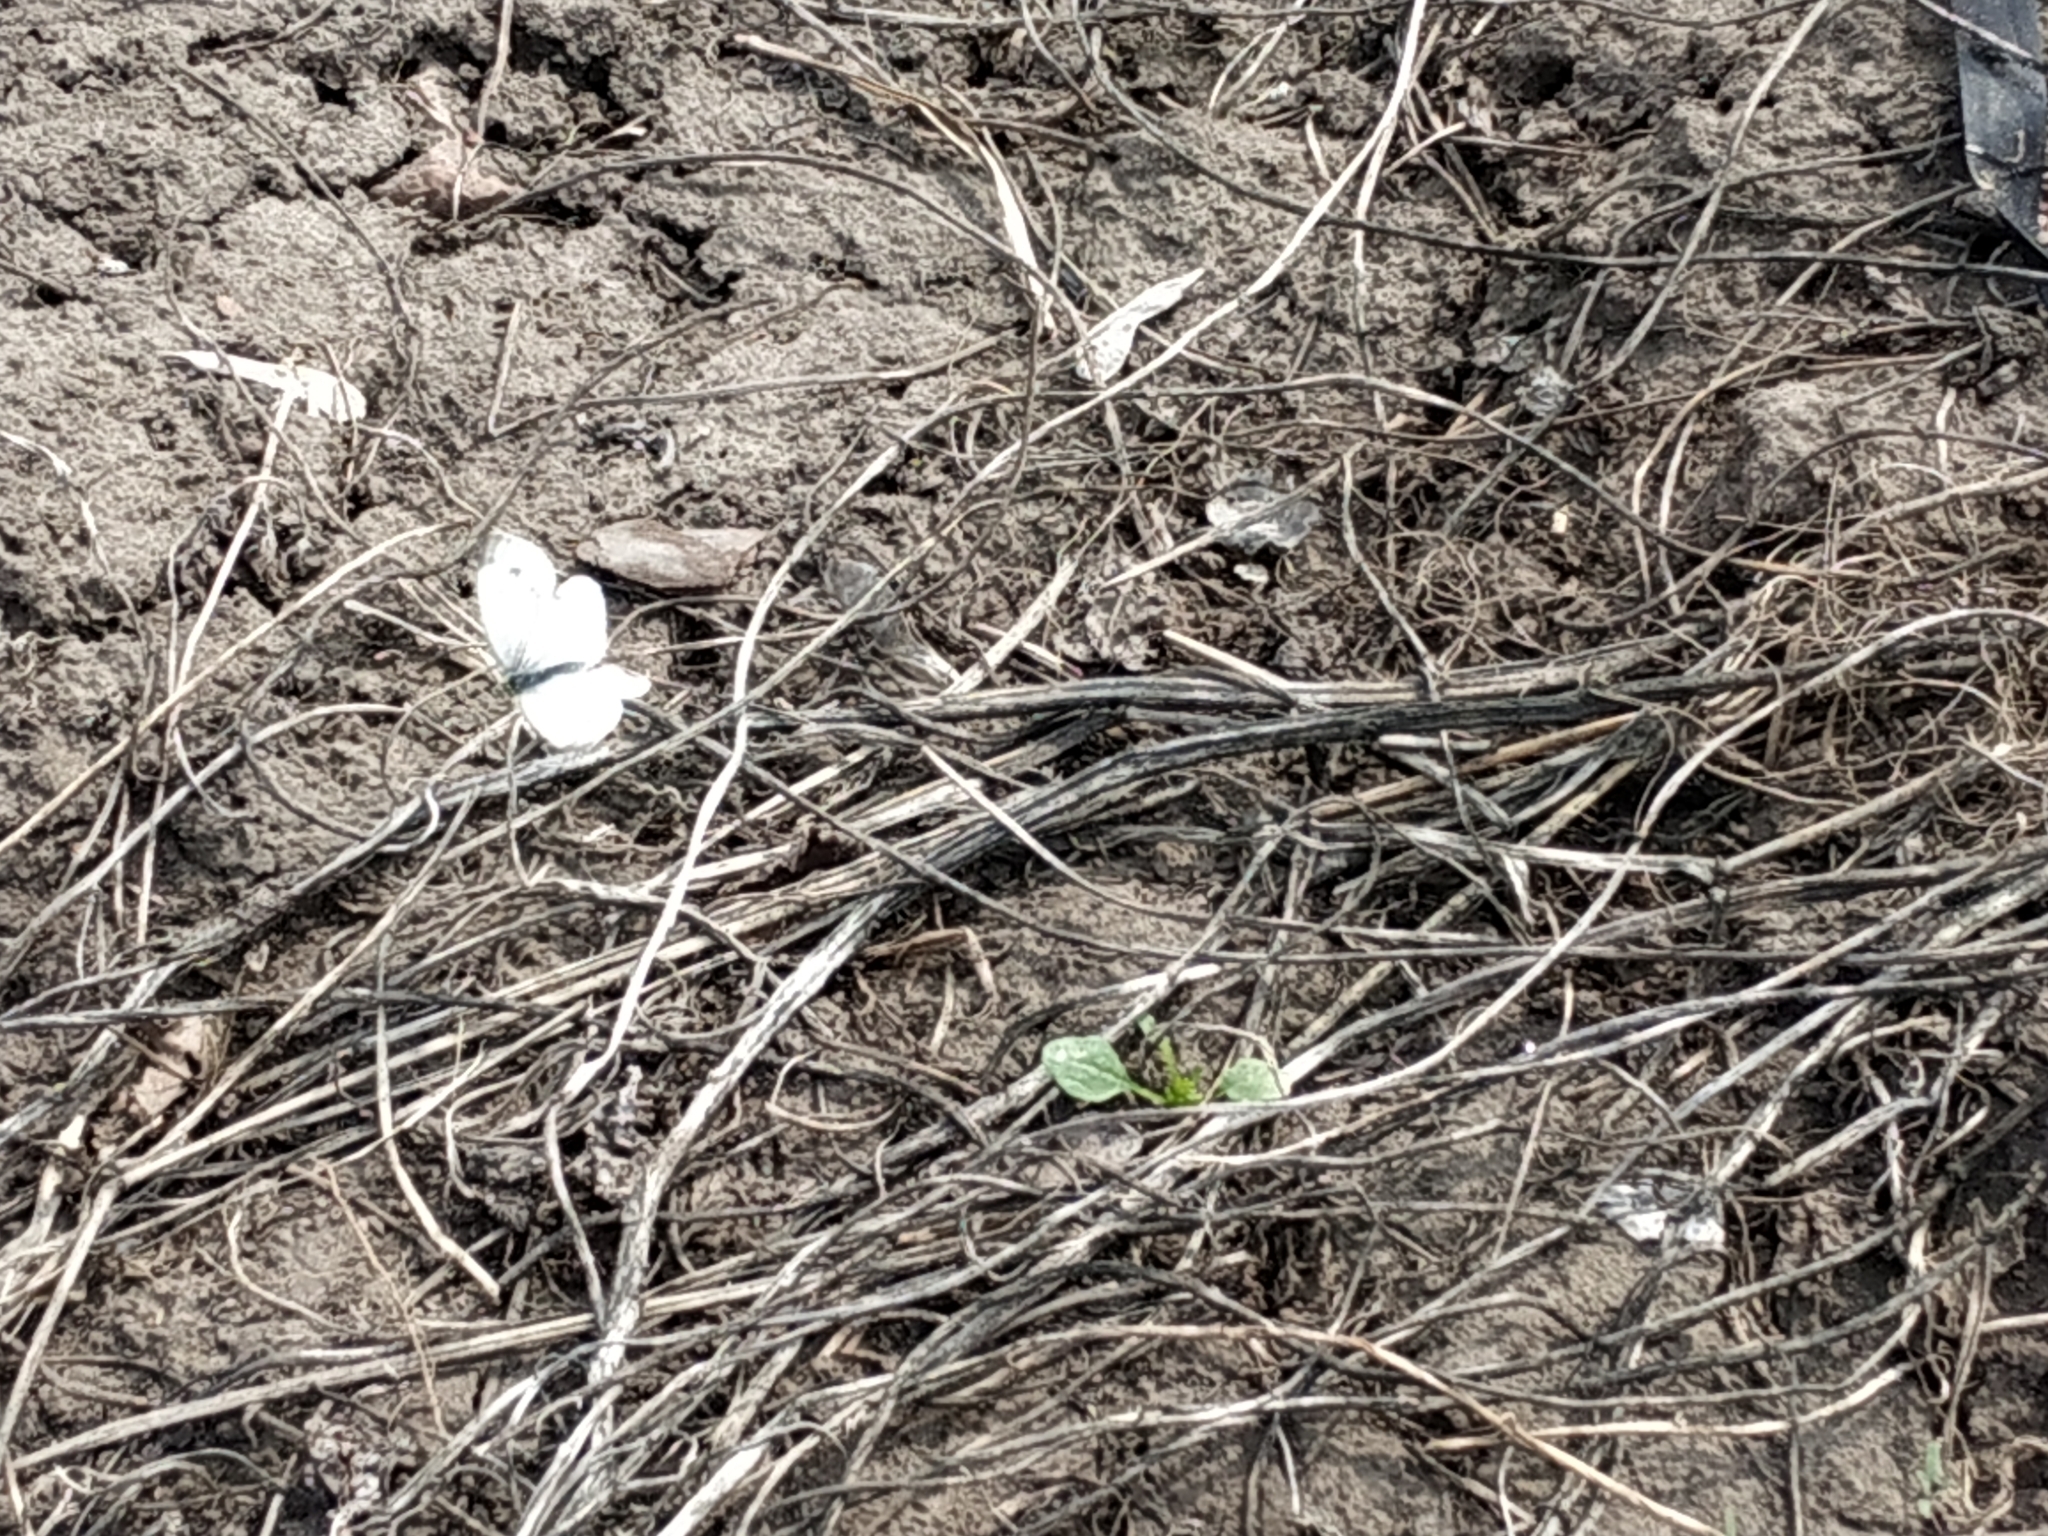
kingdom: Animalia
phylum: Arthropoda
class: Insecta
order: Lepidoptera
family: Pieridae
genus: Pieris
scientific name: Pieris napi
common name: Green-veined white
